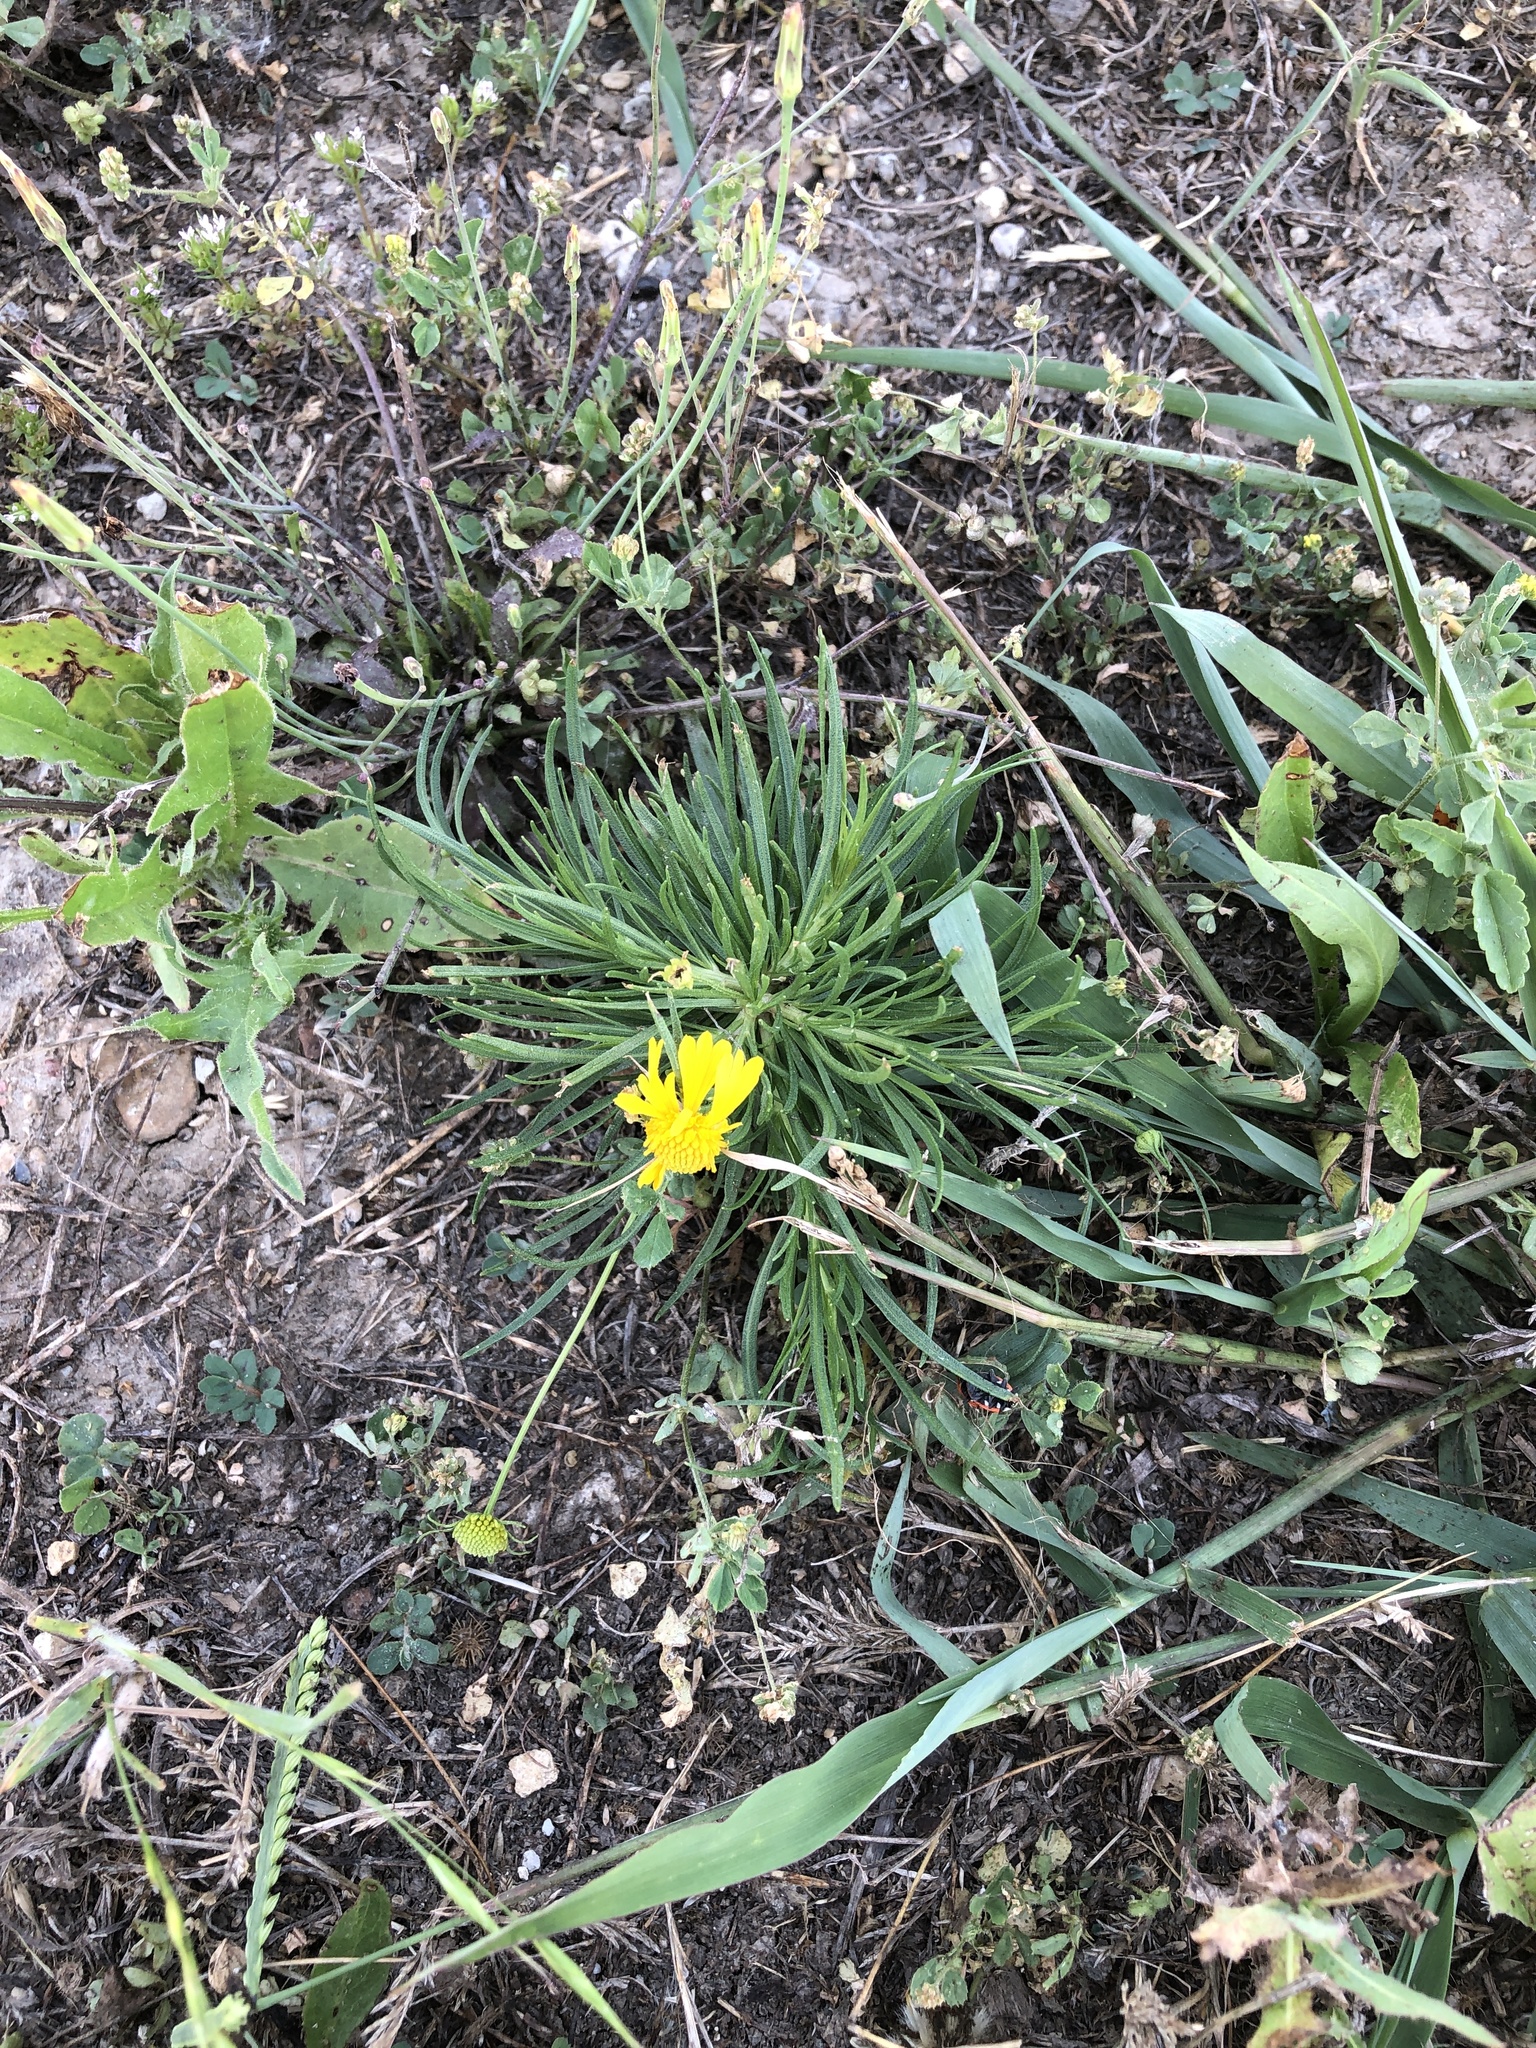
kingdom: Plantae
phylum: Tracheophyta
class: Magnoliopsida
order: Asterales
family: Asteraceae
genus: Helenium
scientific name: Helenium amarum
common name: Bitter sneezeweed
